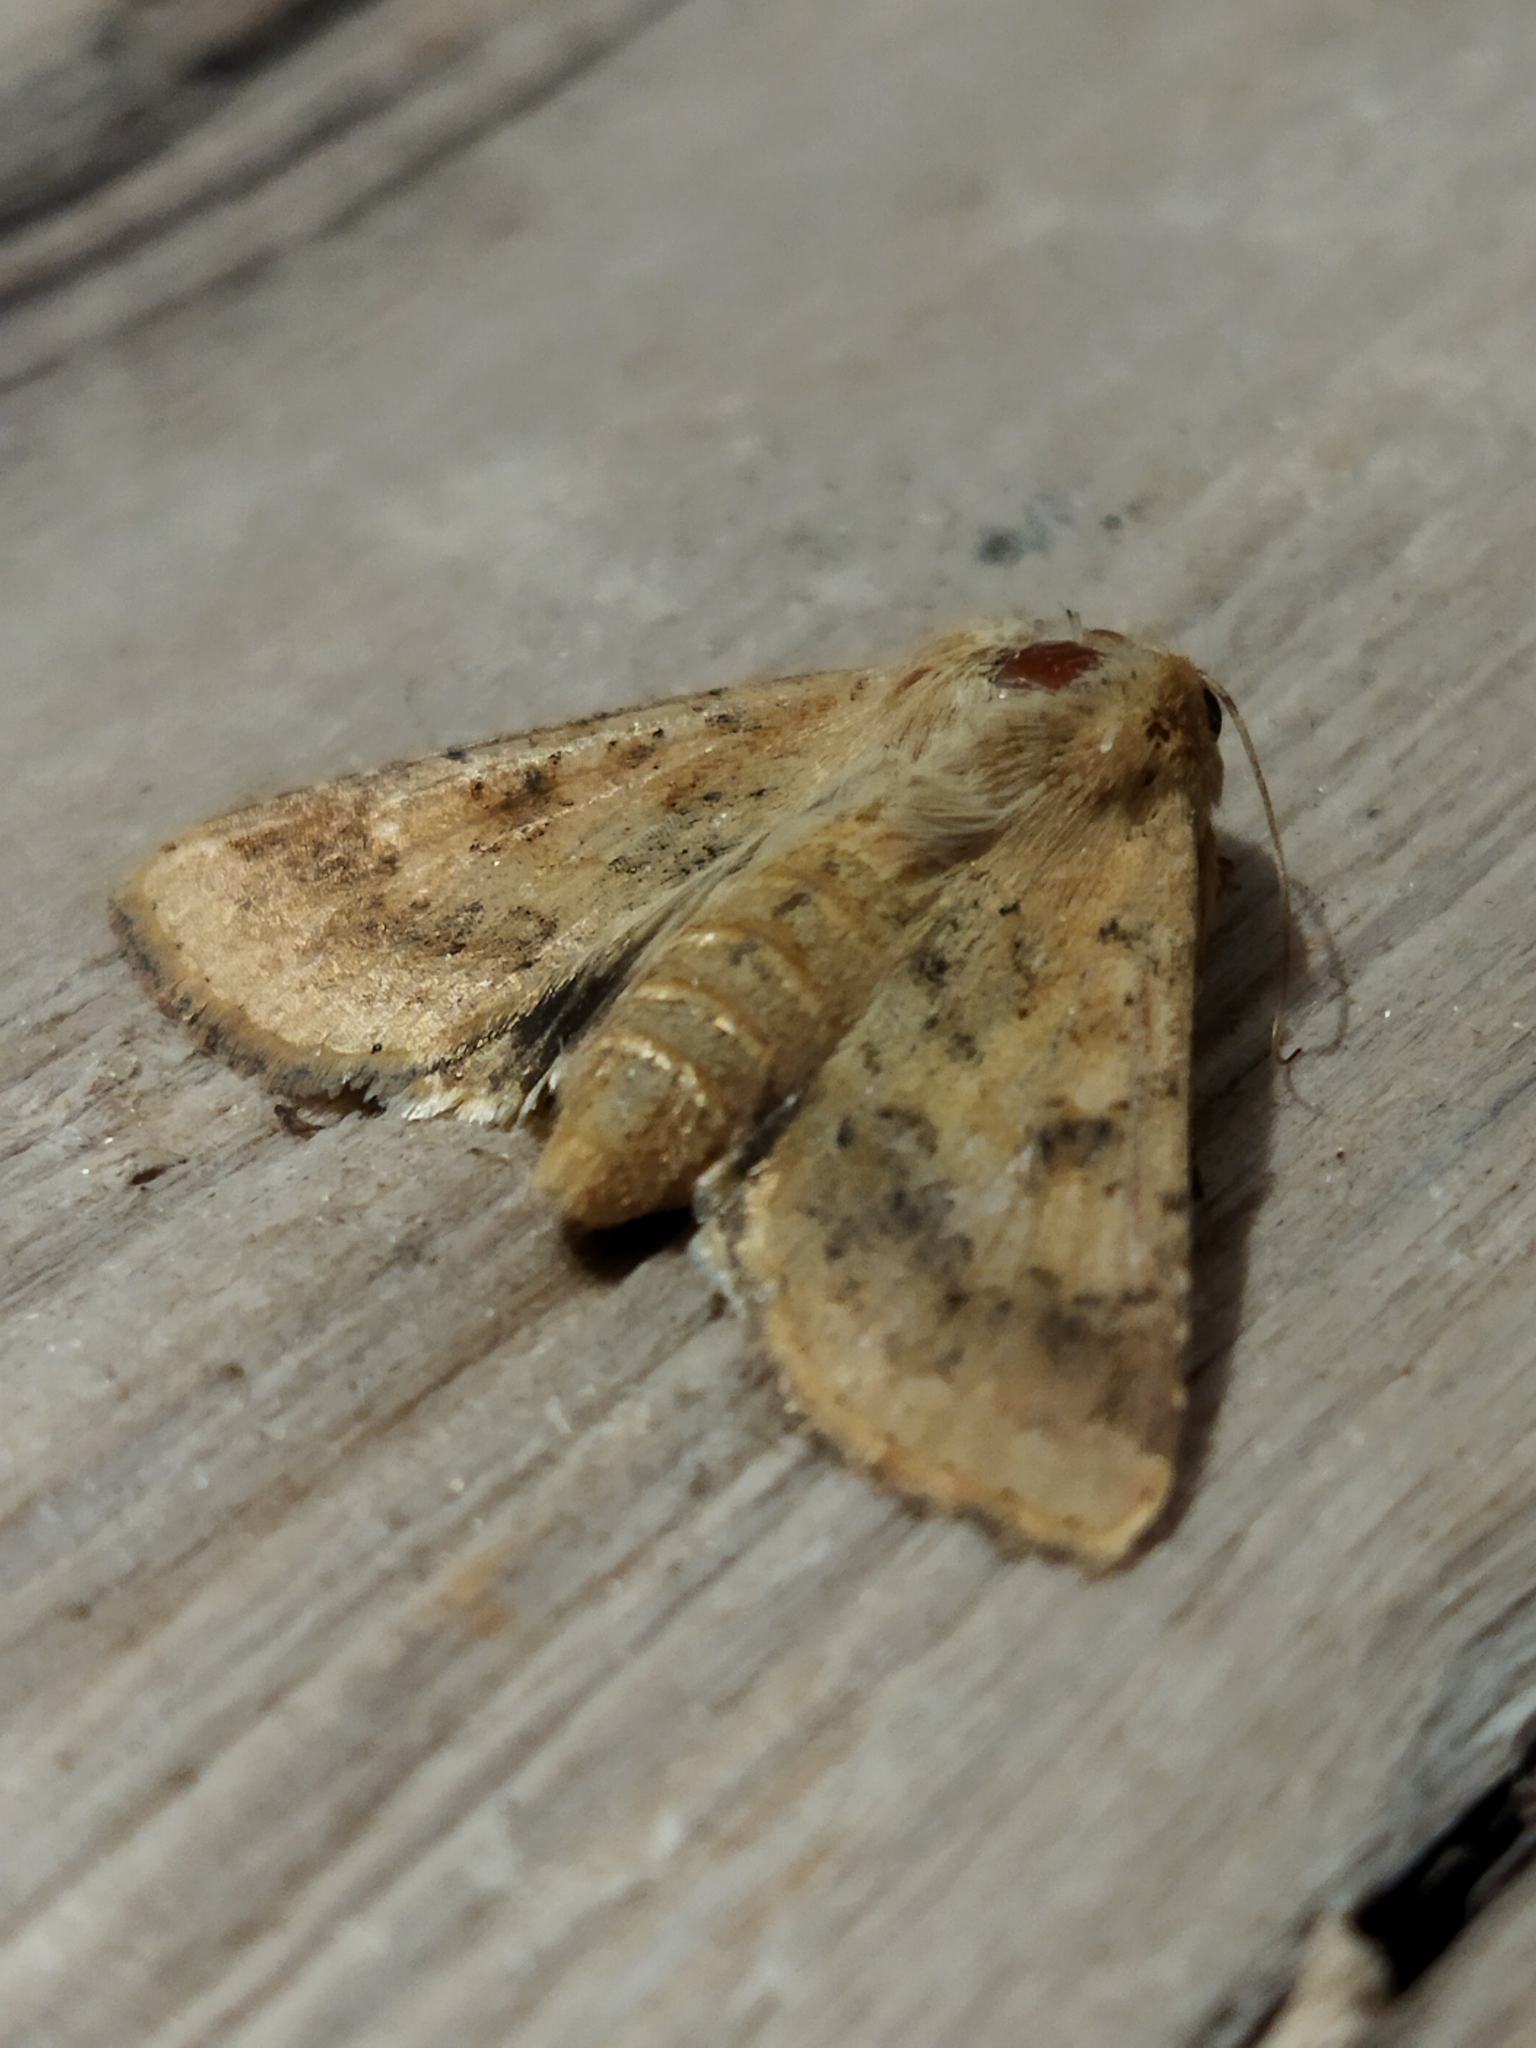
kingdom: Animalia
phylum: Arthropoda
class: Insecta
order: Lepidoptera
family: Noctuidae
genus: Helicoverpa
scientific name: Helicoverpa armigera
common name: Cotton bollworm
